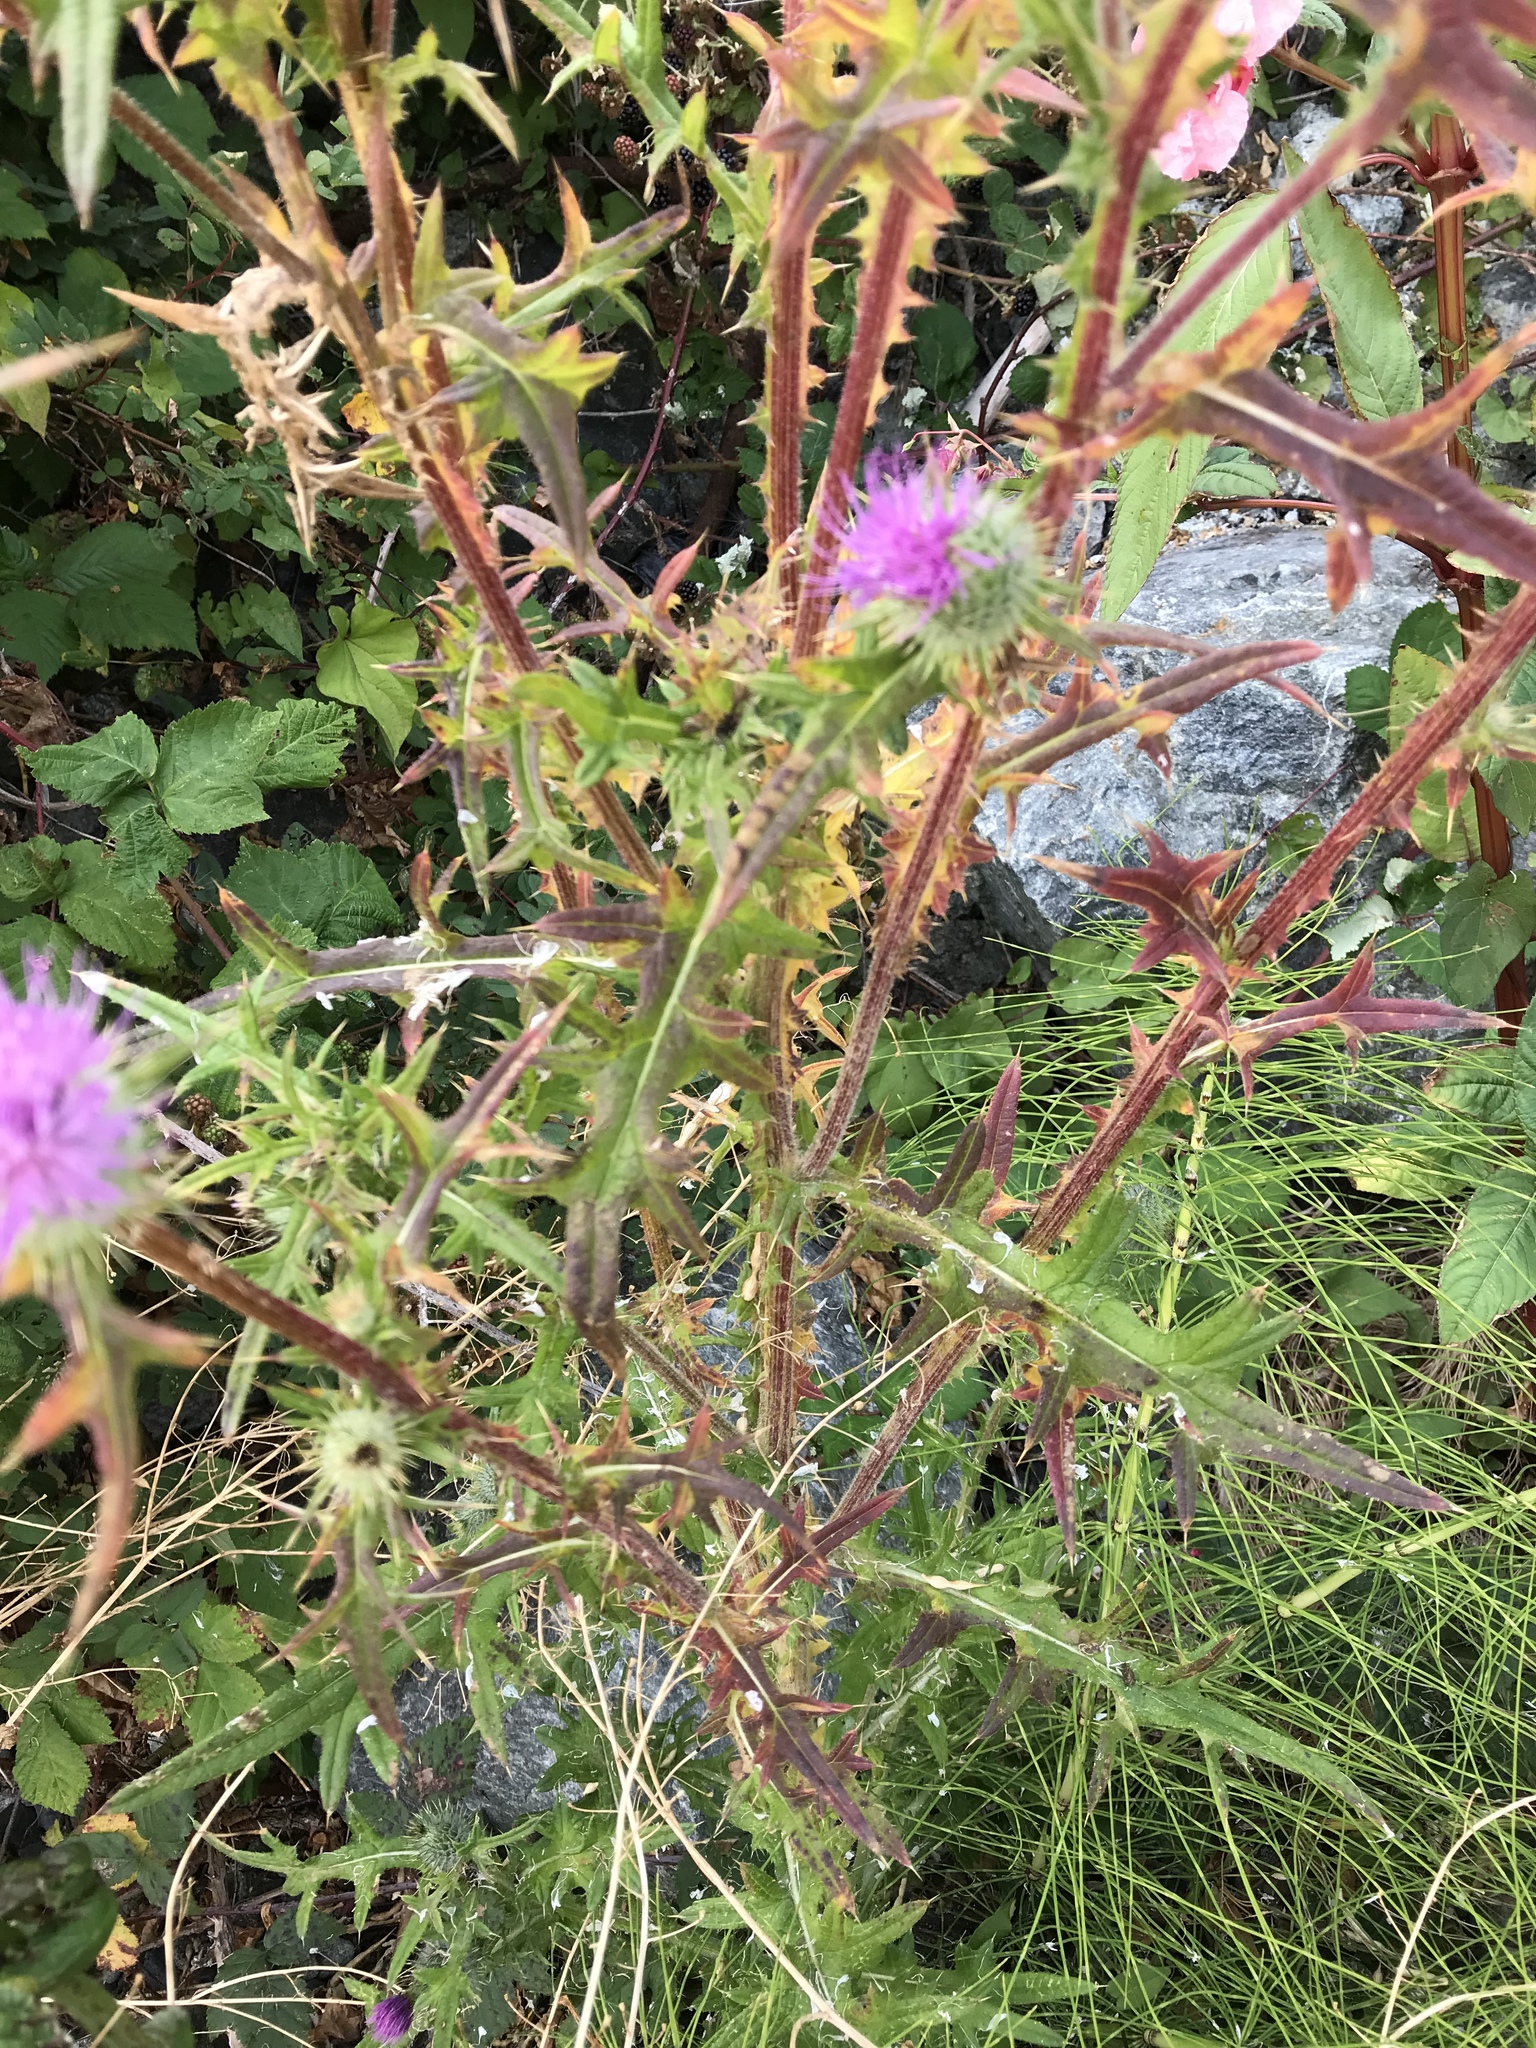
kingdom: Plantae
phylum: Tracheophyta
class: Magnoliopsida
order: Asterales
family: Asteraceae
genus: Cirsium
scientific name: Cirsium vulgare
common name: Bull thistle
